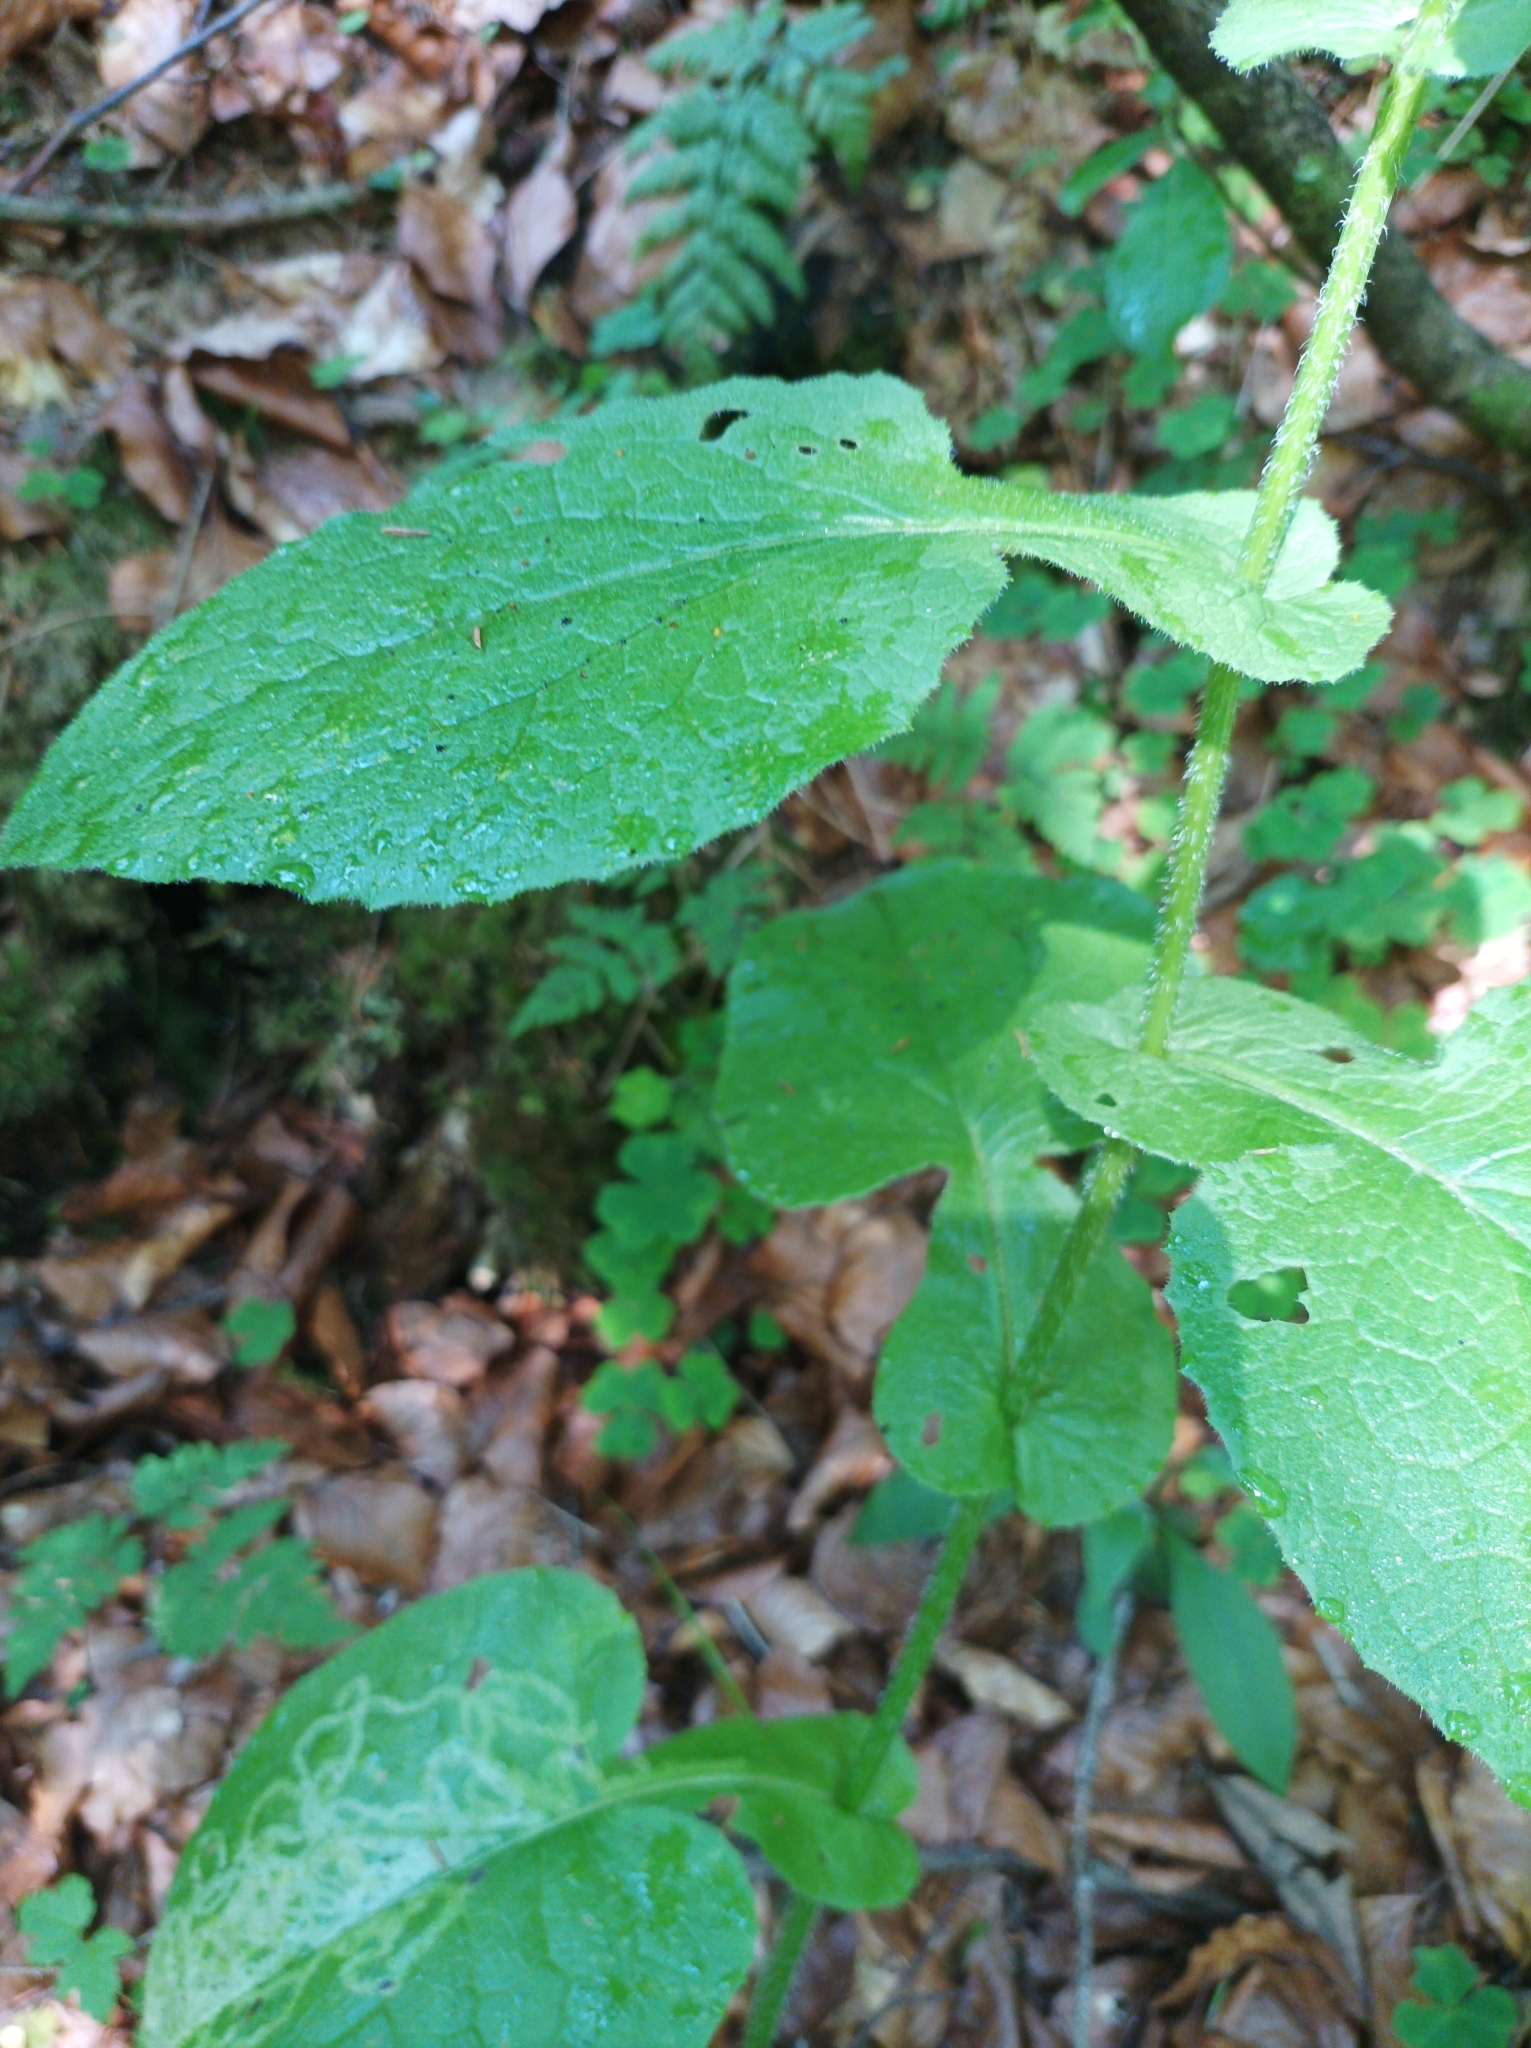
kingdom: Plantae
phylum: Tracheophyta
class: Magnoliopsida
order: Asterales
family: Asteraceae
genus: Doronicum
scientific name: Doronicum austriacum
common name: Austrian leopard's-bane
